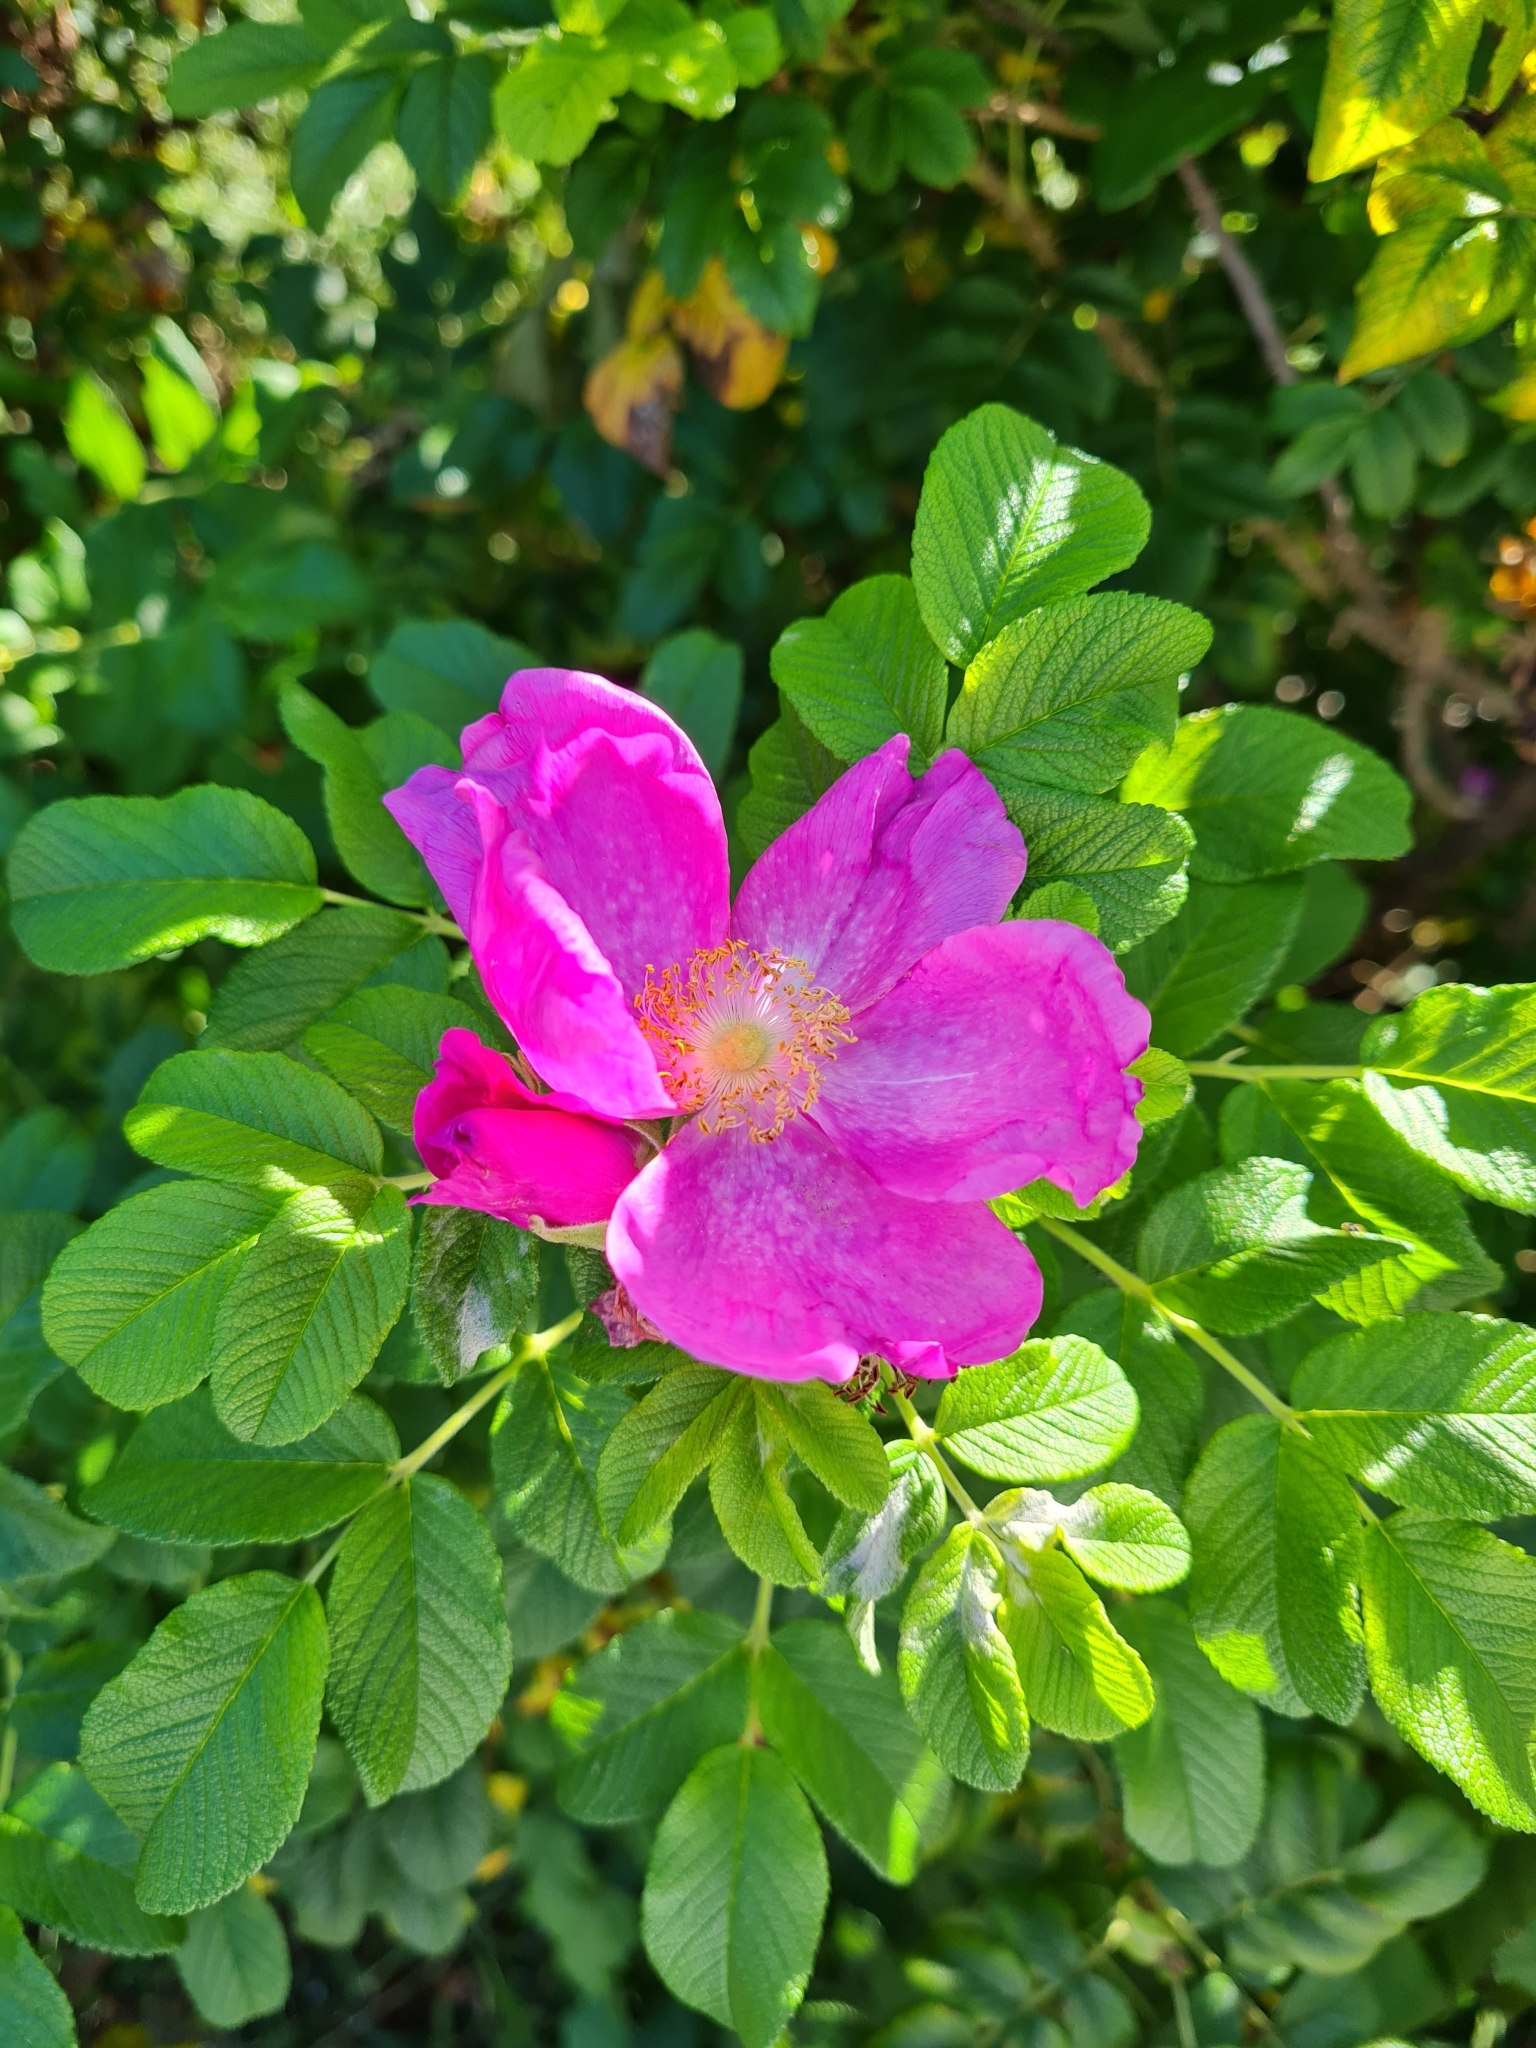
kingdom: Plantae
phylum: Tracheophyta
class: Magnoliopsida
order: Rosales
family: Rosaceae
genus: Rosa
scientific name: Rosa rugosa
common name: Japanese rose
